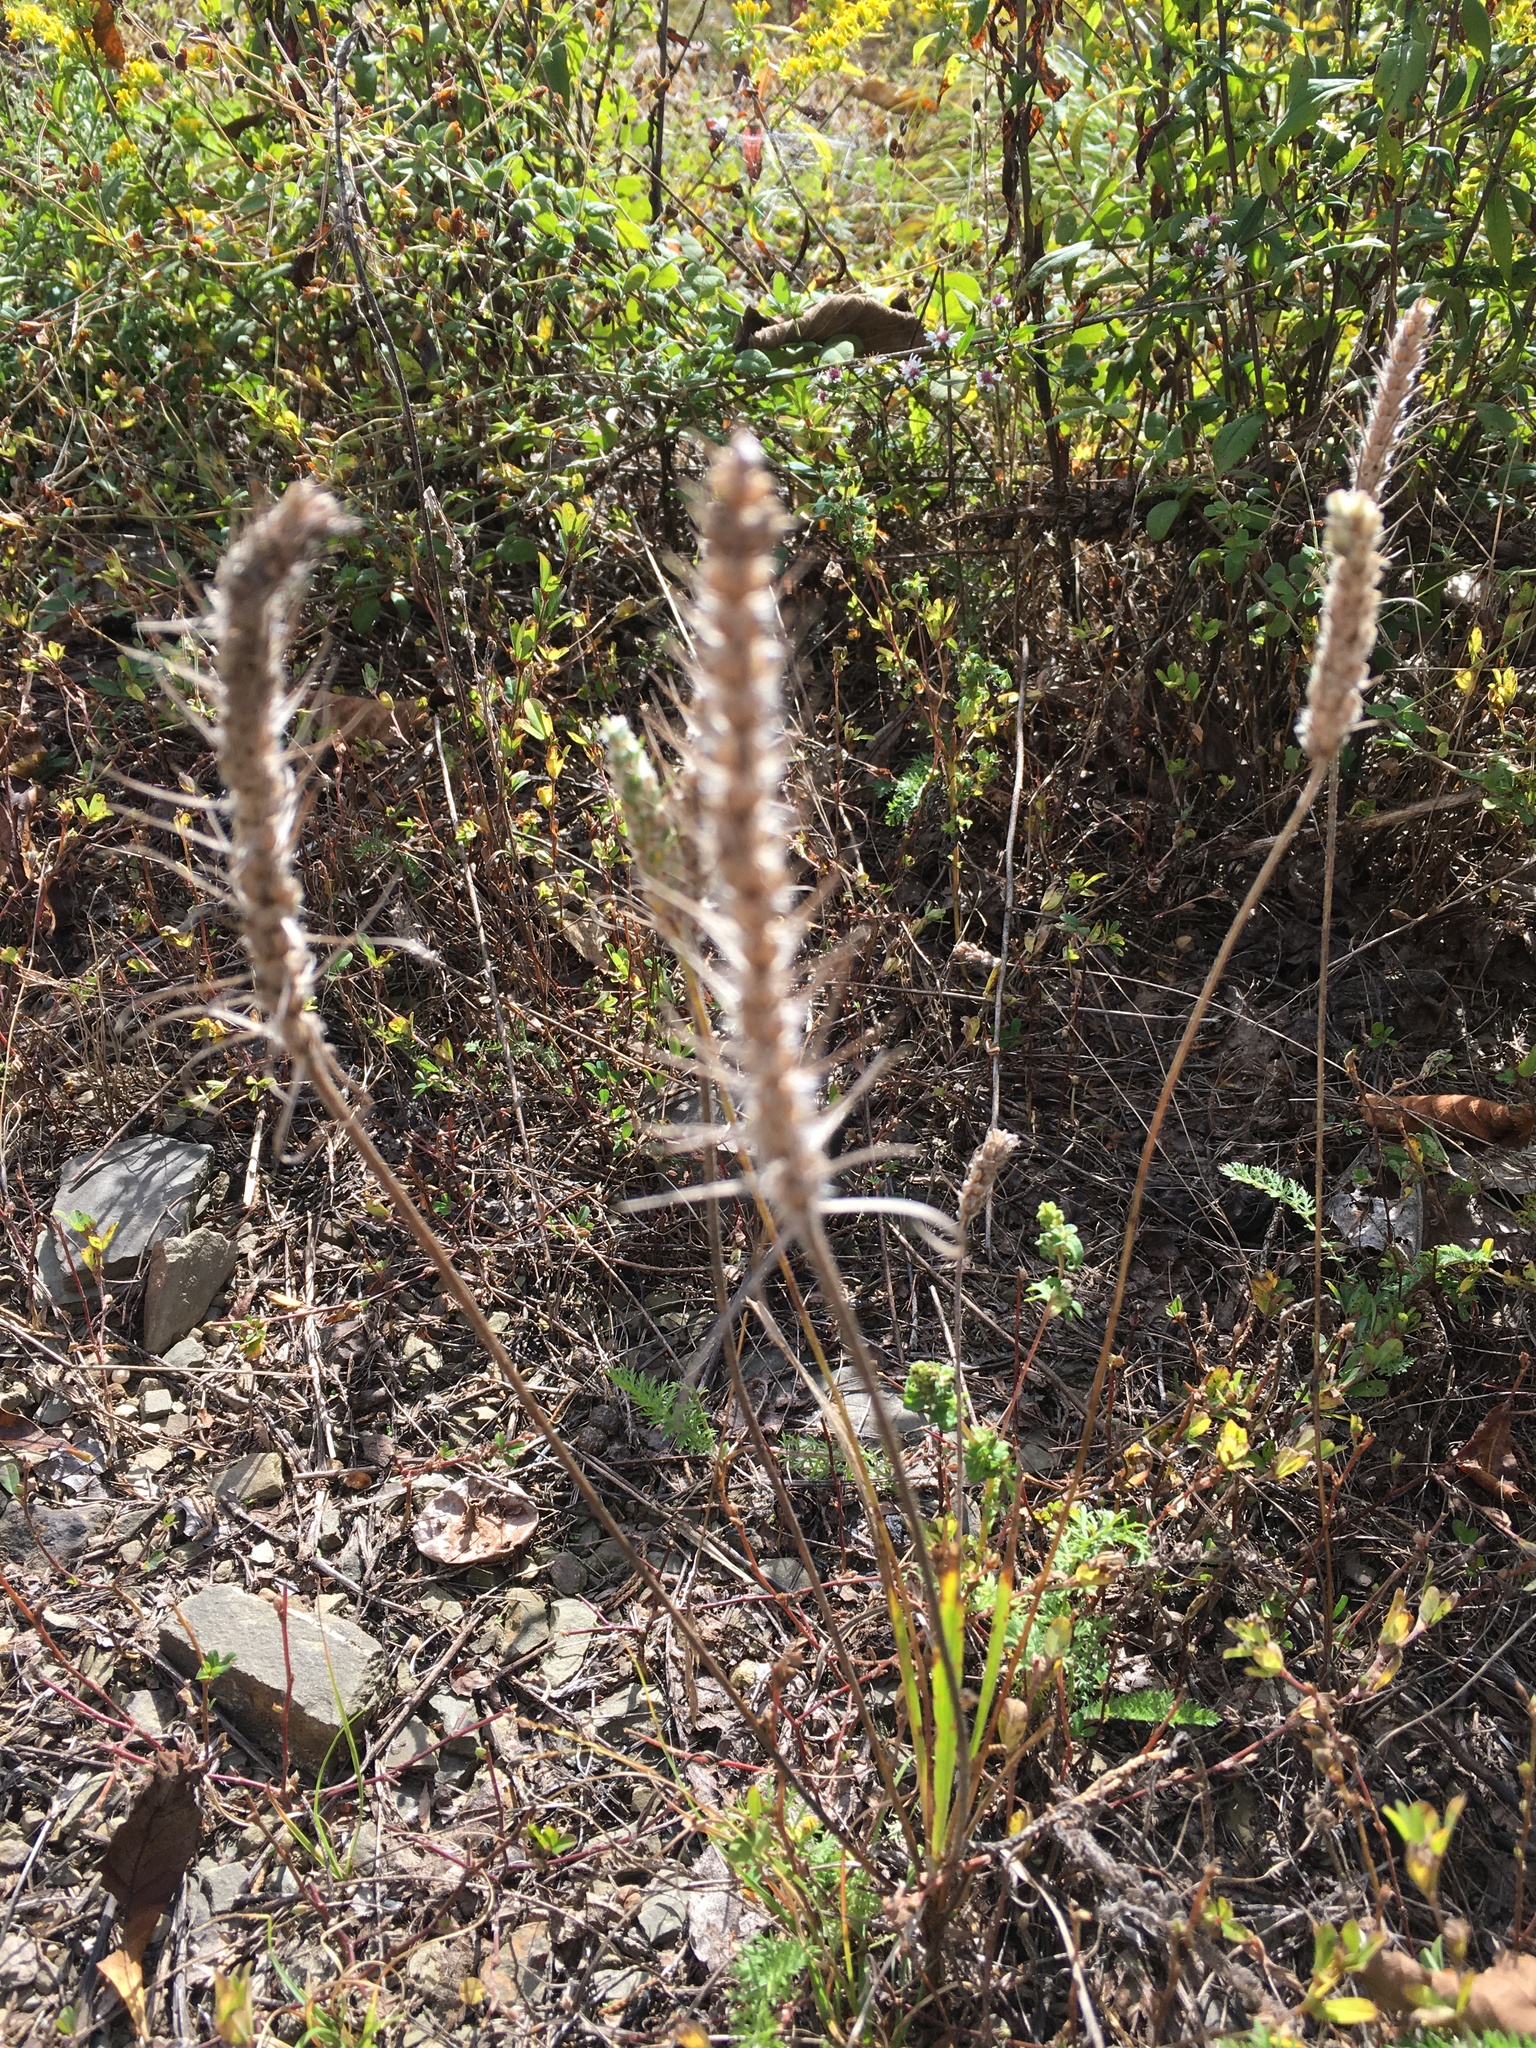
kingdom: Plantae
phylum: Tracheophyta
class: Magnoliopsida
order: Lamiales
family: Plantaginaceae
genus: Plantago
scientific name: Plantago aristata
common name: Bracted plantain
